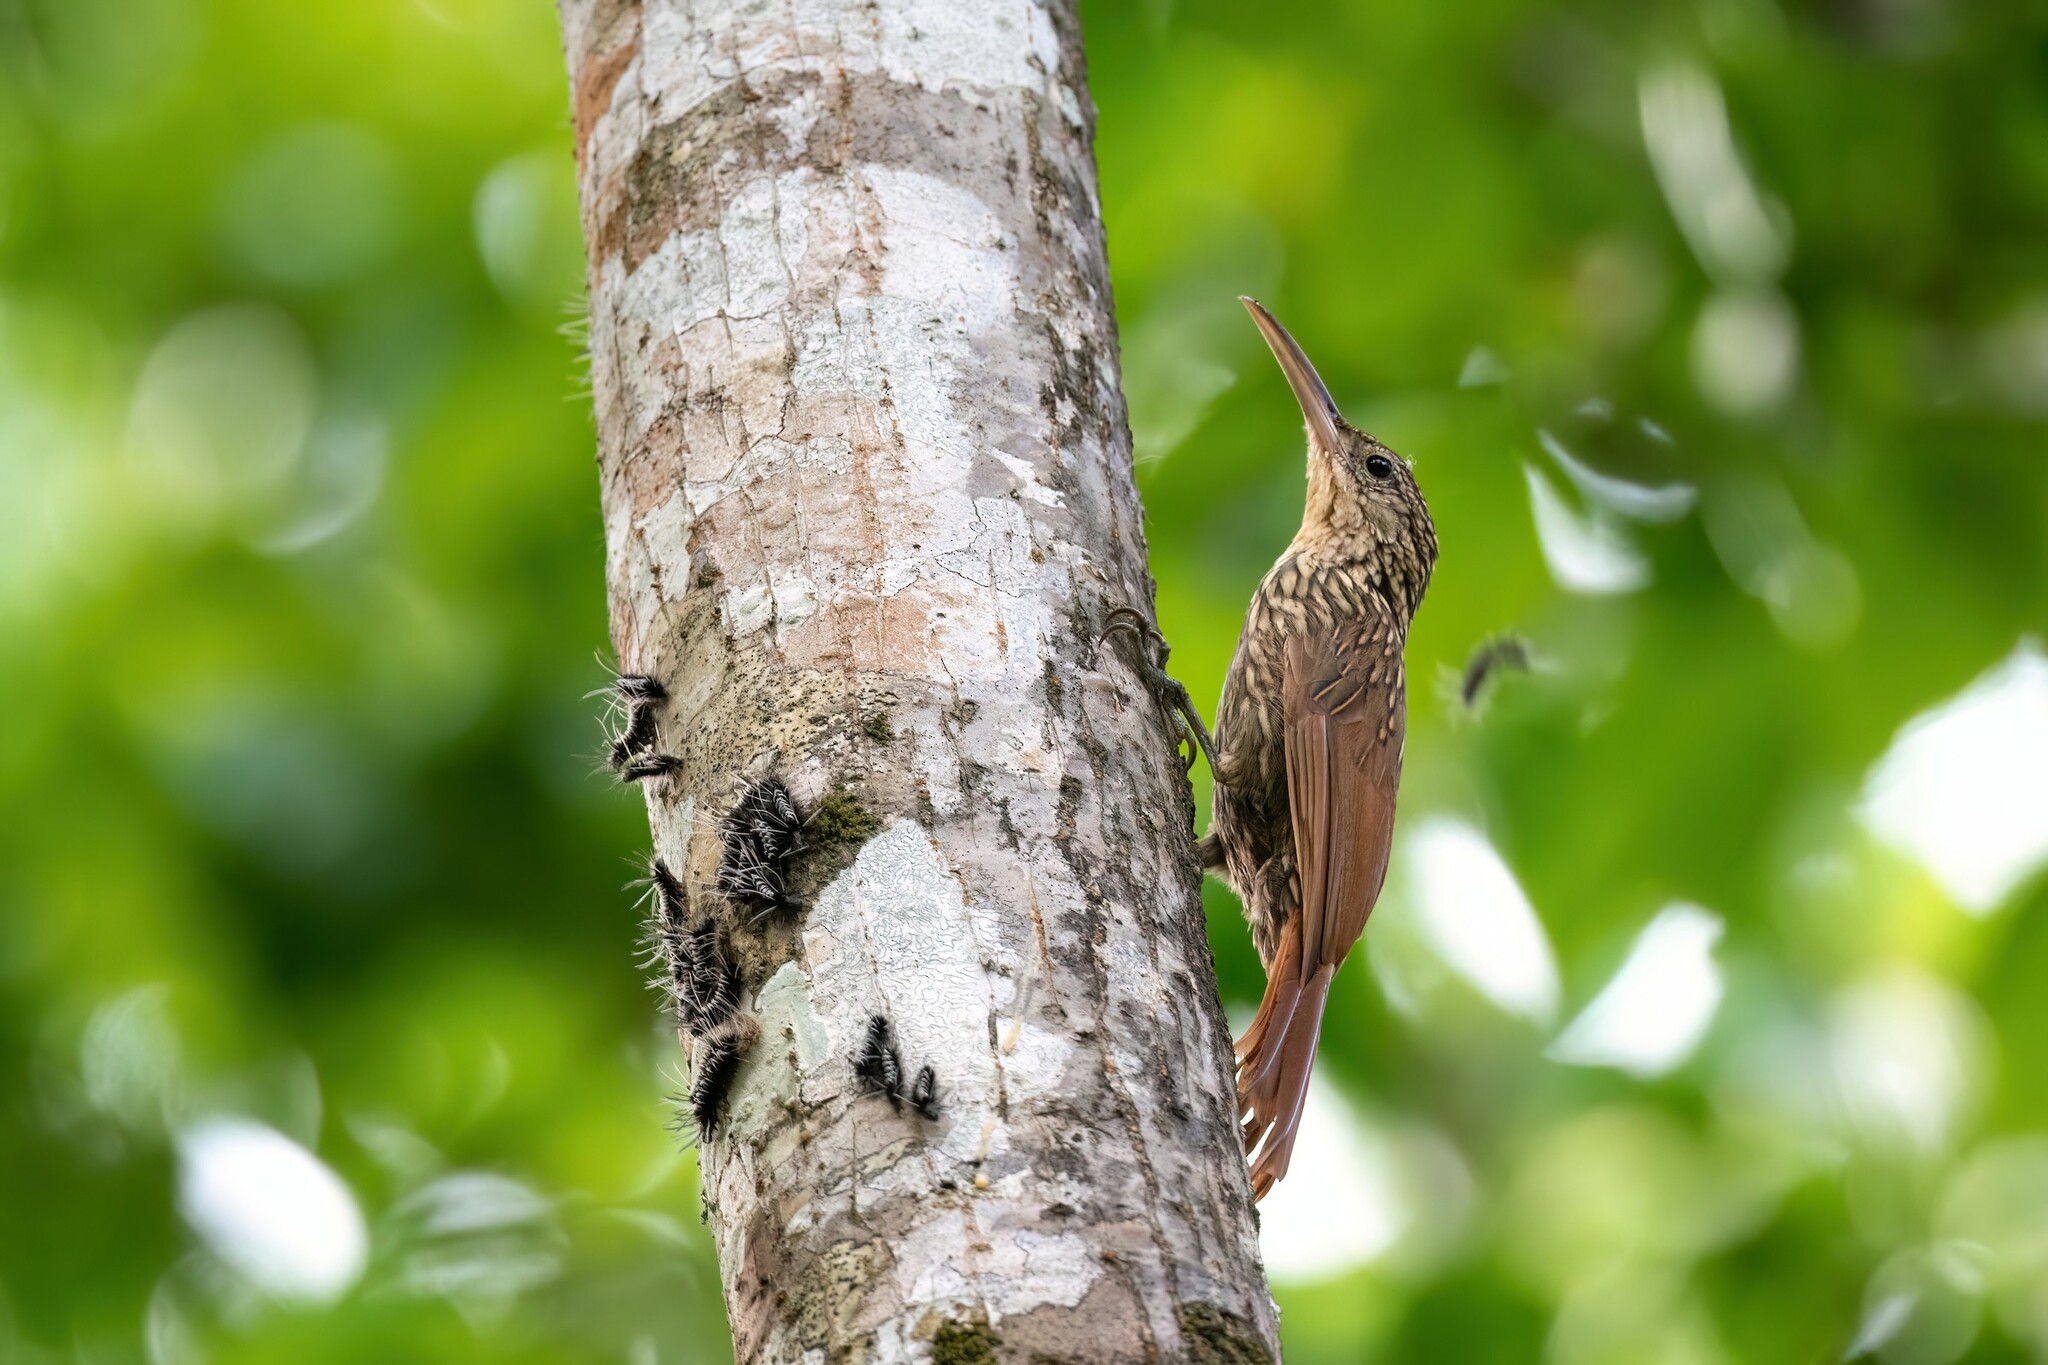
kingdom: Animalia
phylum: Chordata
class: Aves
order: Passeriformes
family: Furnariidae
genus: Xiphorhynchus
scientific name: Xiphorhynchus flavigaster
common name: Ivory-billed woodcreeper
